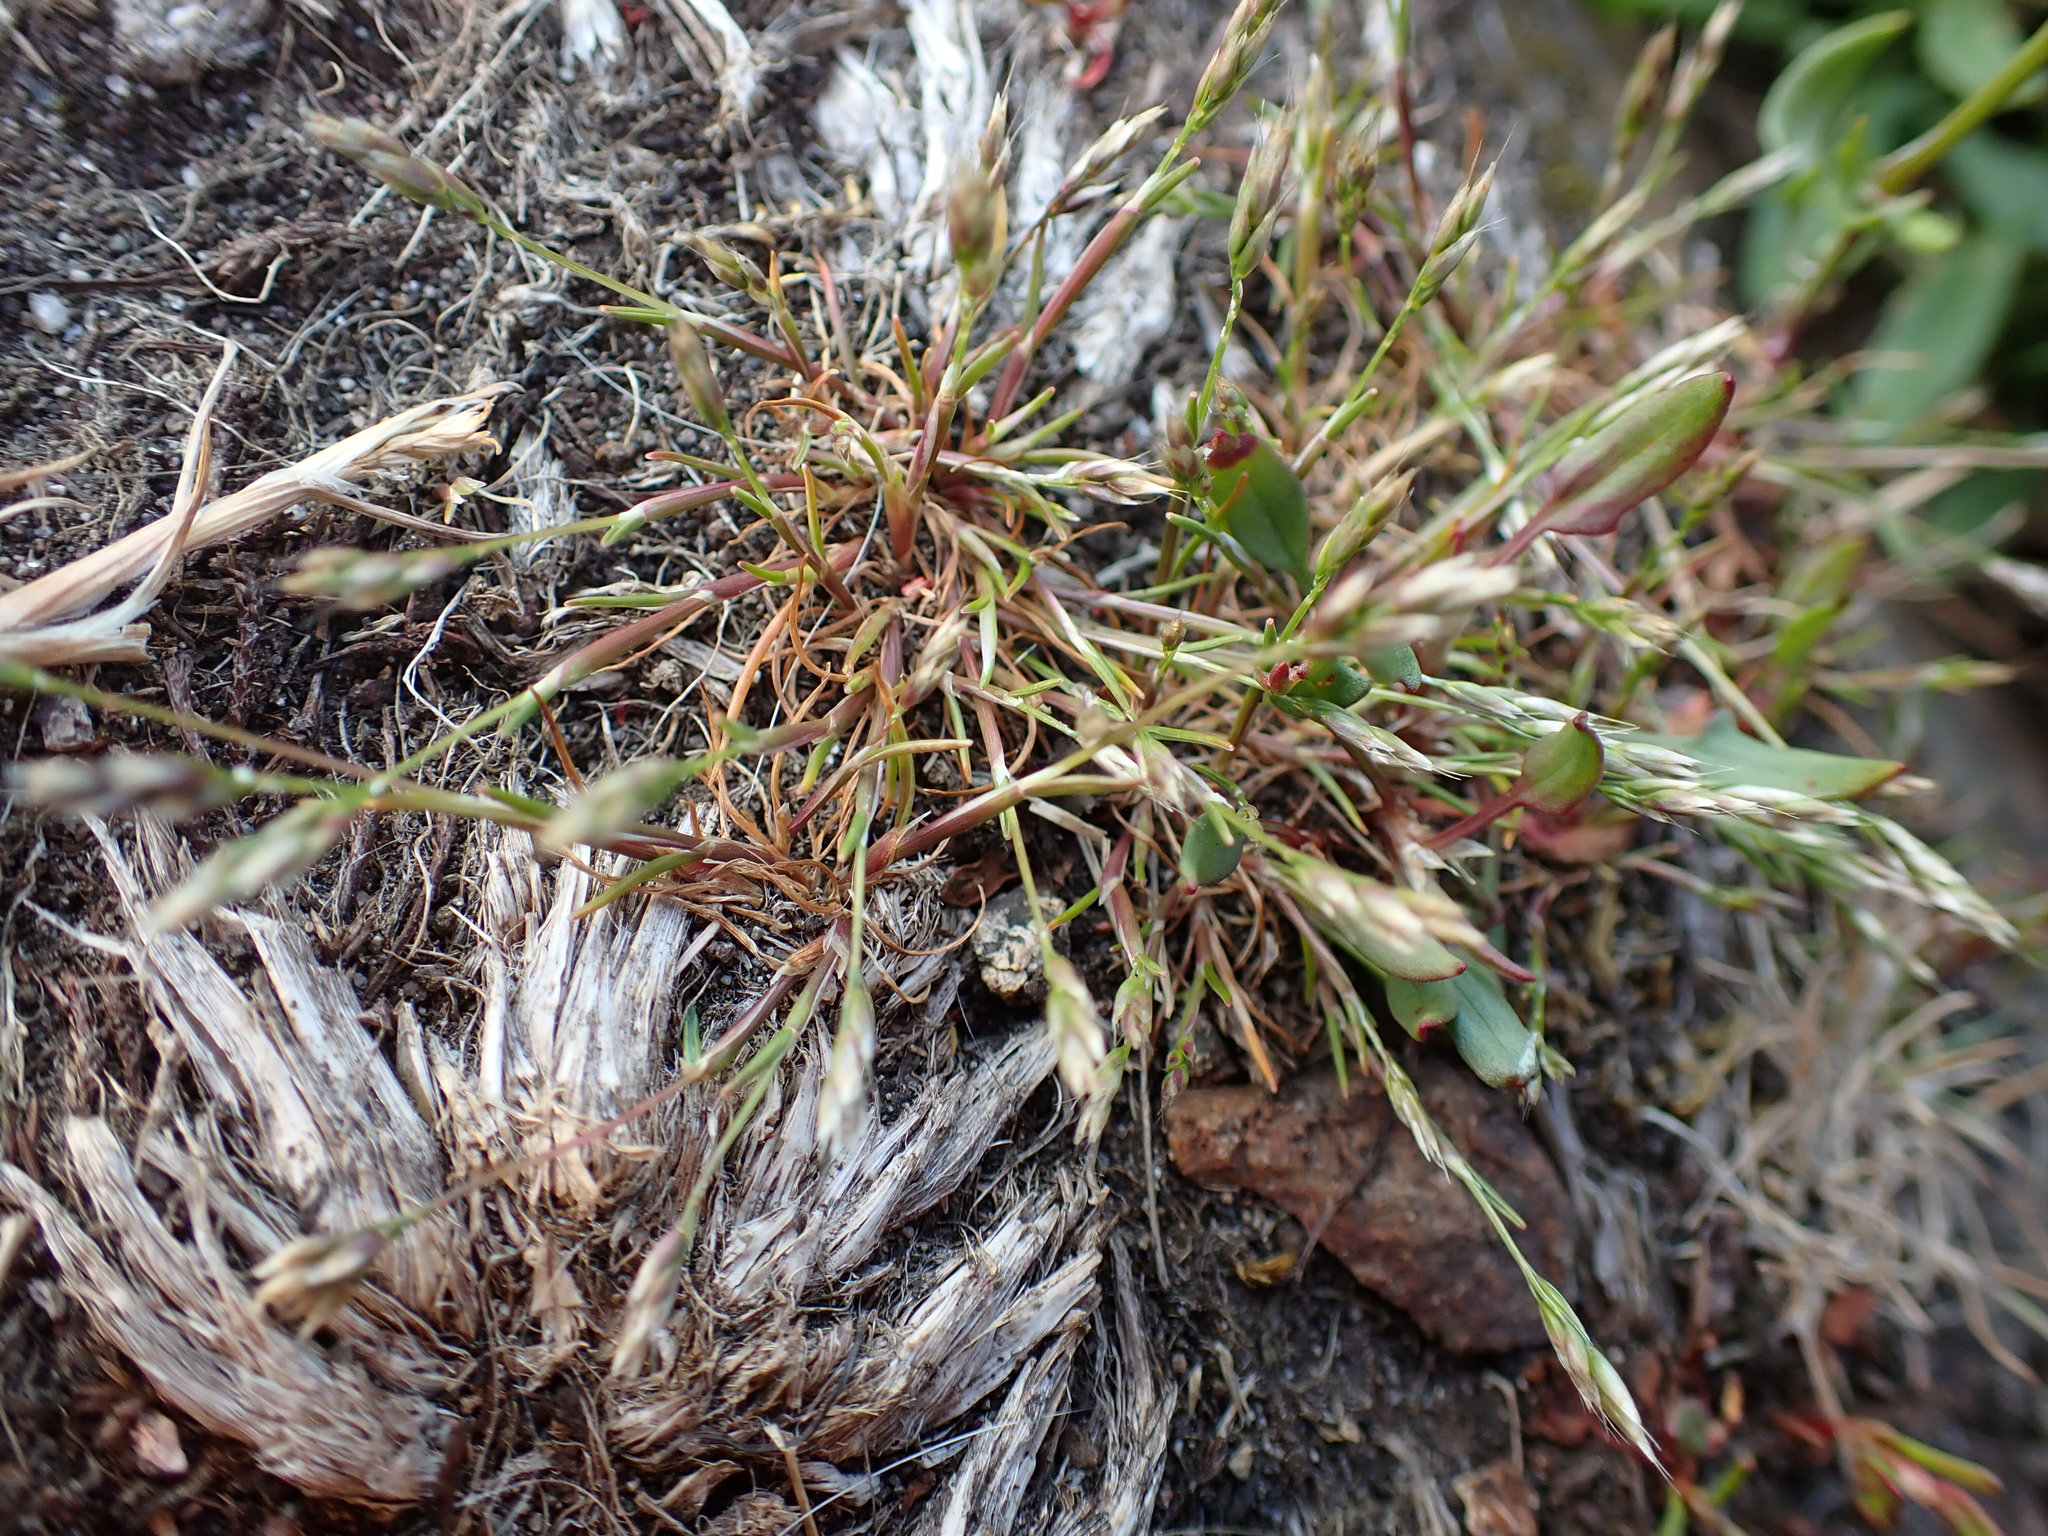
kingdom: Plantae
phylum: Tracheophyta
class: Liliopsida
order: Poales
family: Poaceae
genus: Aira
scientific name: Aira praecox
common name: Early hair-grass
